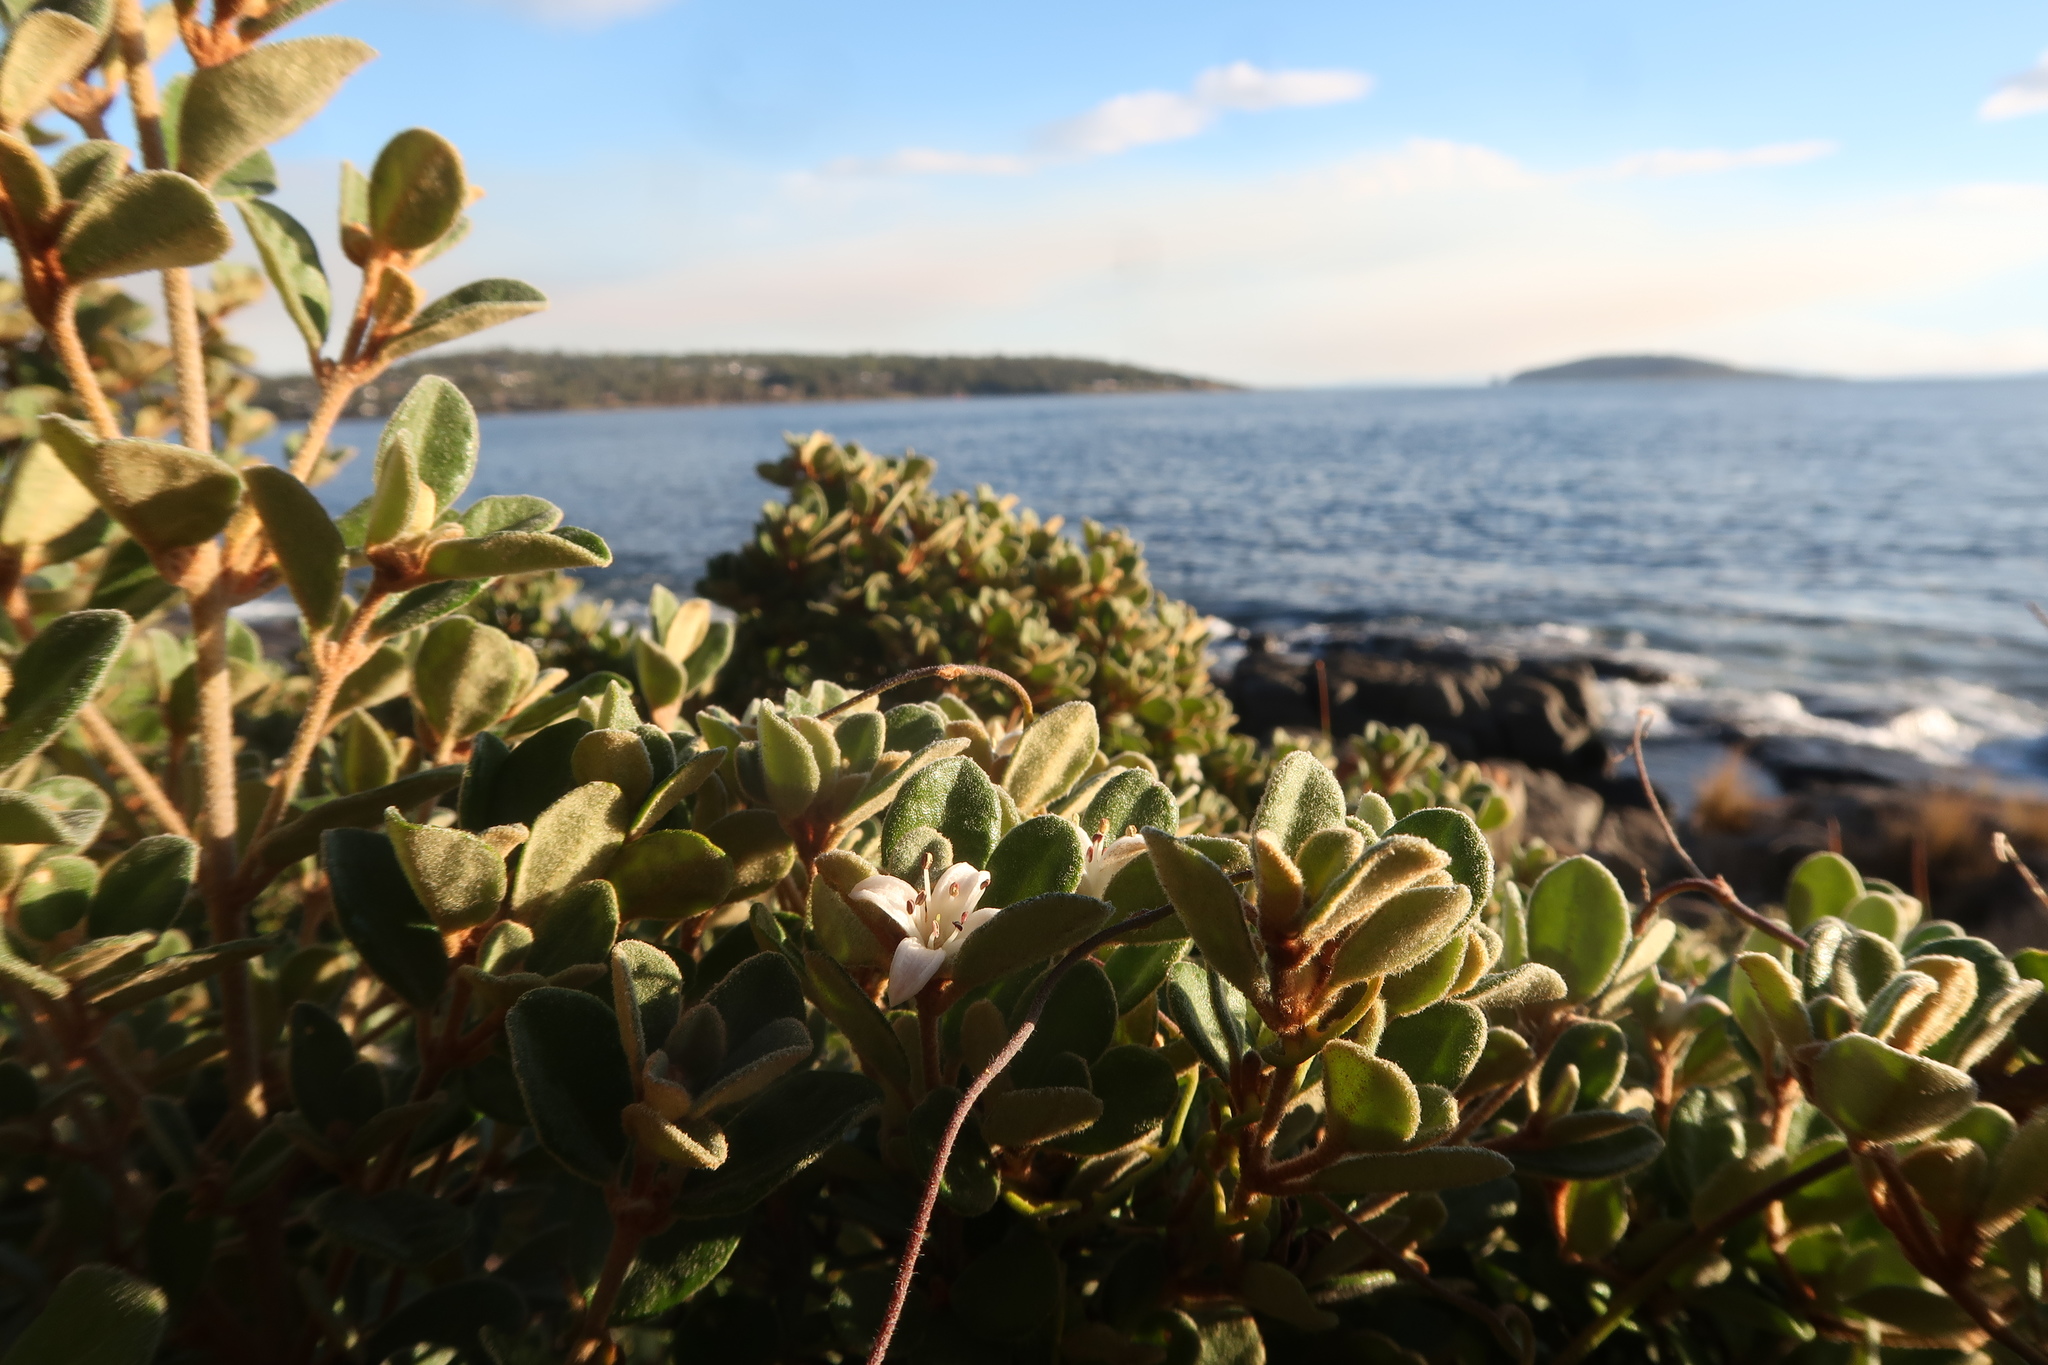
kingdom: Plantae
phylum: Tracheophyta
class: Magnoliopsida
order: Sapindales
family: Rutaceae
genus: Correa
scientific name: Correa alba
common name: White correa
